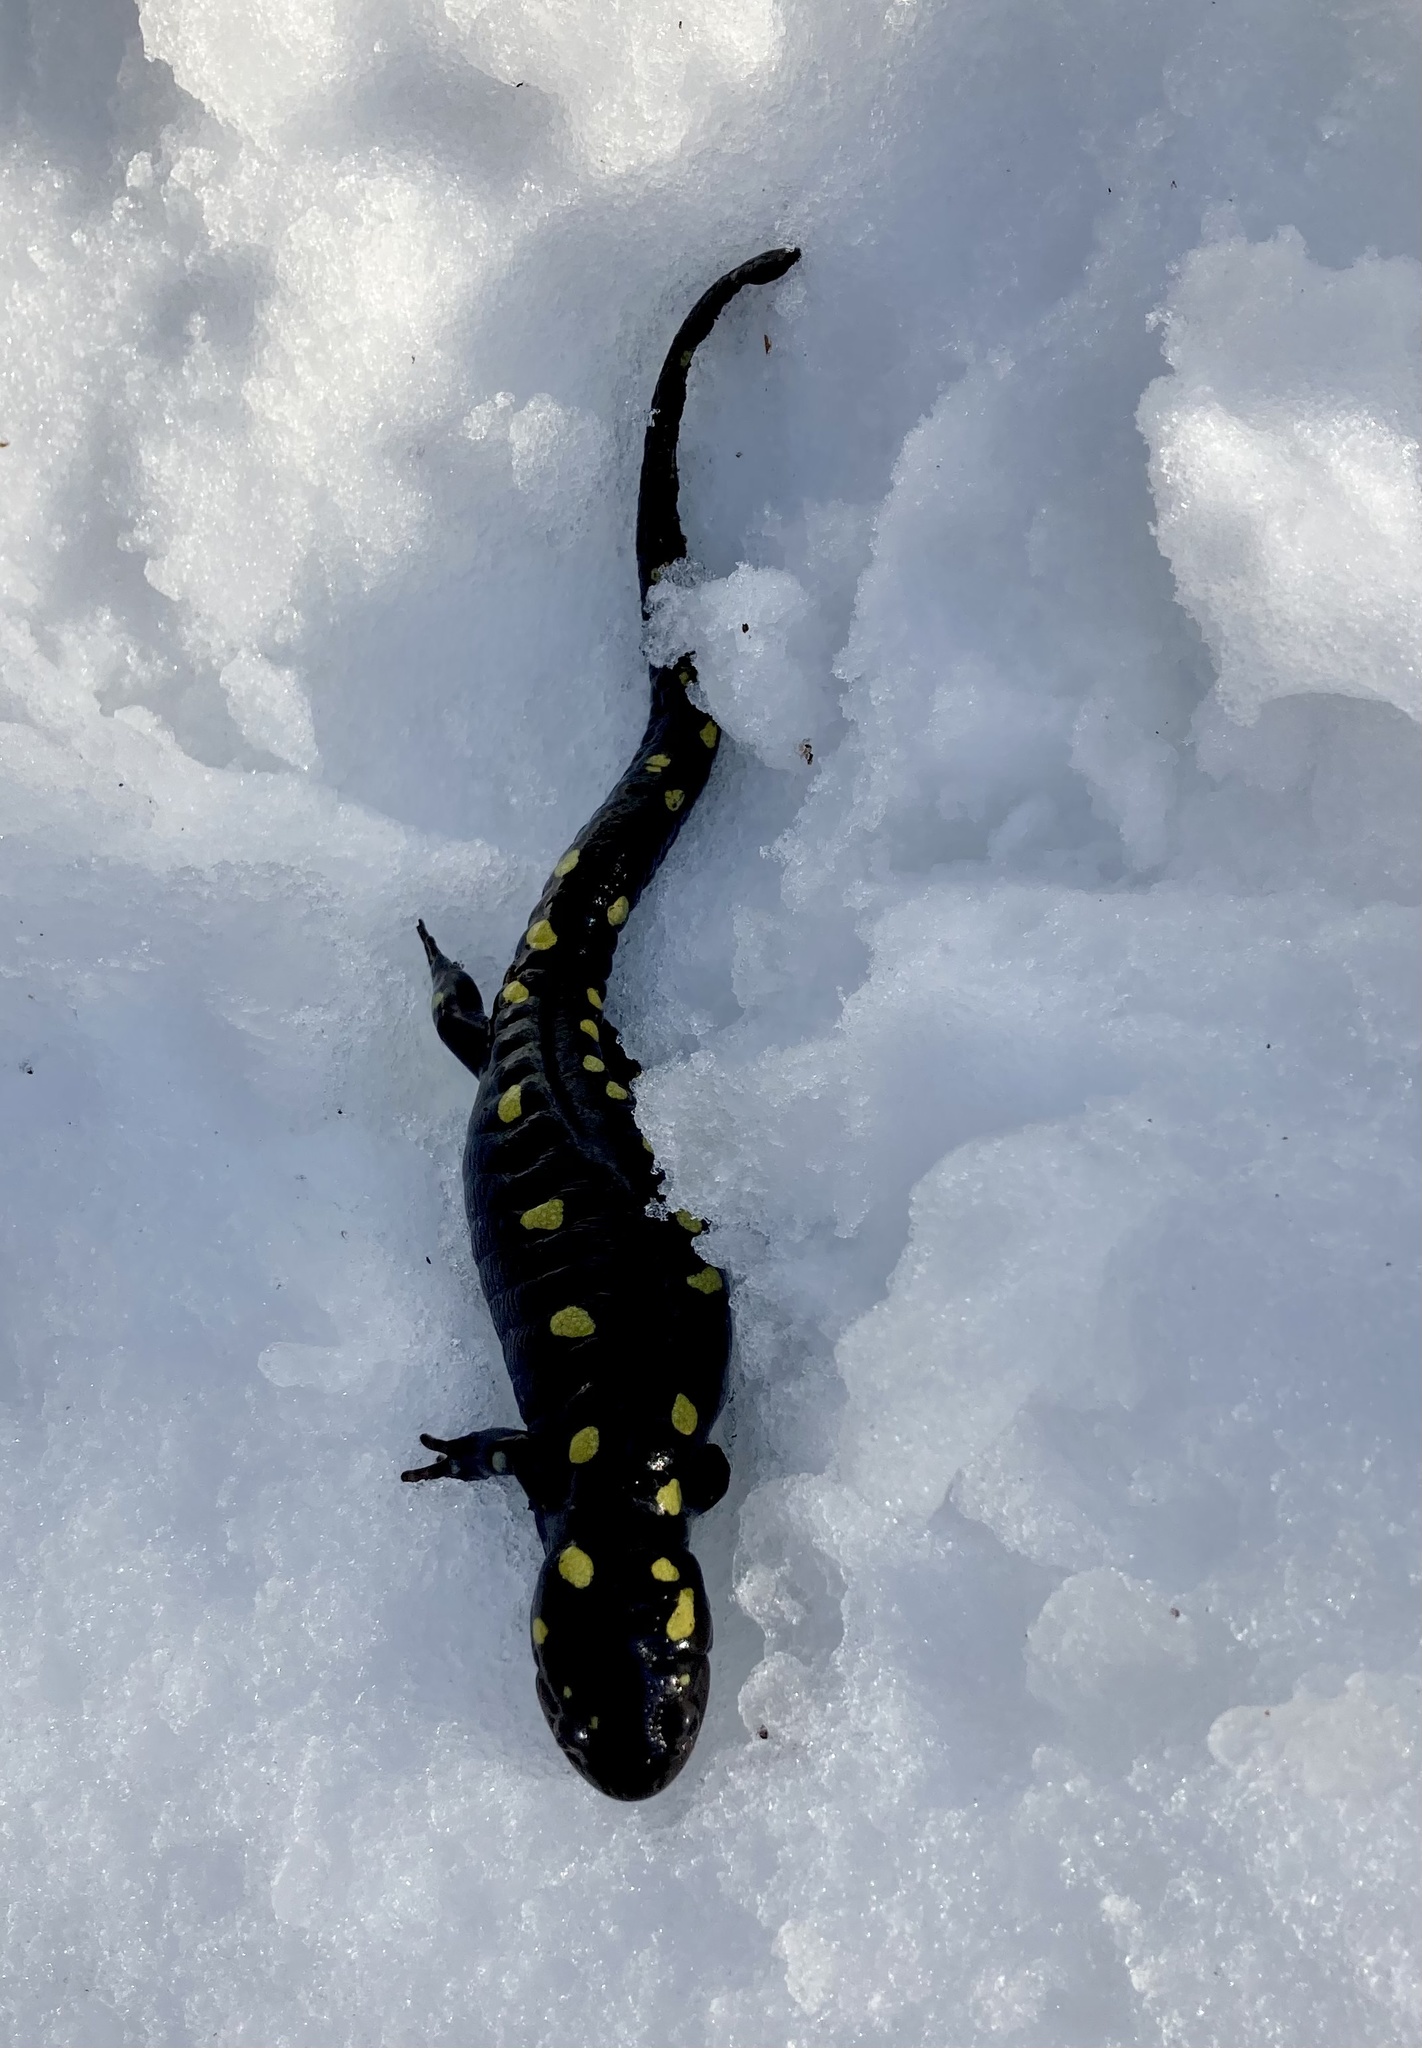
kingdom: Animalia
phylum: Chordata
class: Amphibia
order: Caudata
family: Ambystomatidae
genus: Ambystoma
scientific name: Ambystoma maculatum
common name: Spotted salamander
